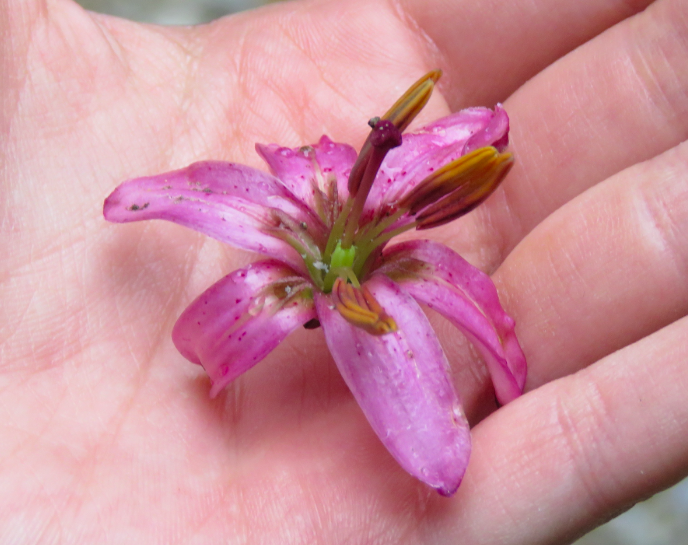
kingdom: Plantae
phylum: Tracheophyta
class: Liliopsida
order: Liliales
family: Liliaceae
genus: Lilium
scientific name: Lilium martagon
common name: Martagon lily
